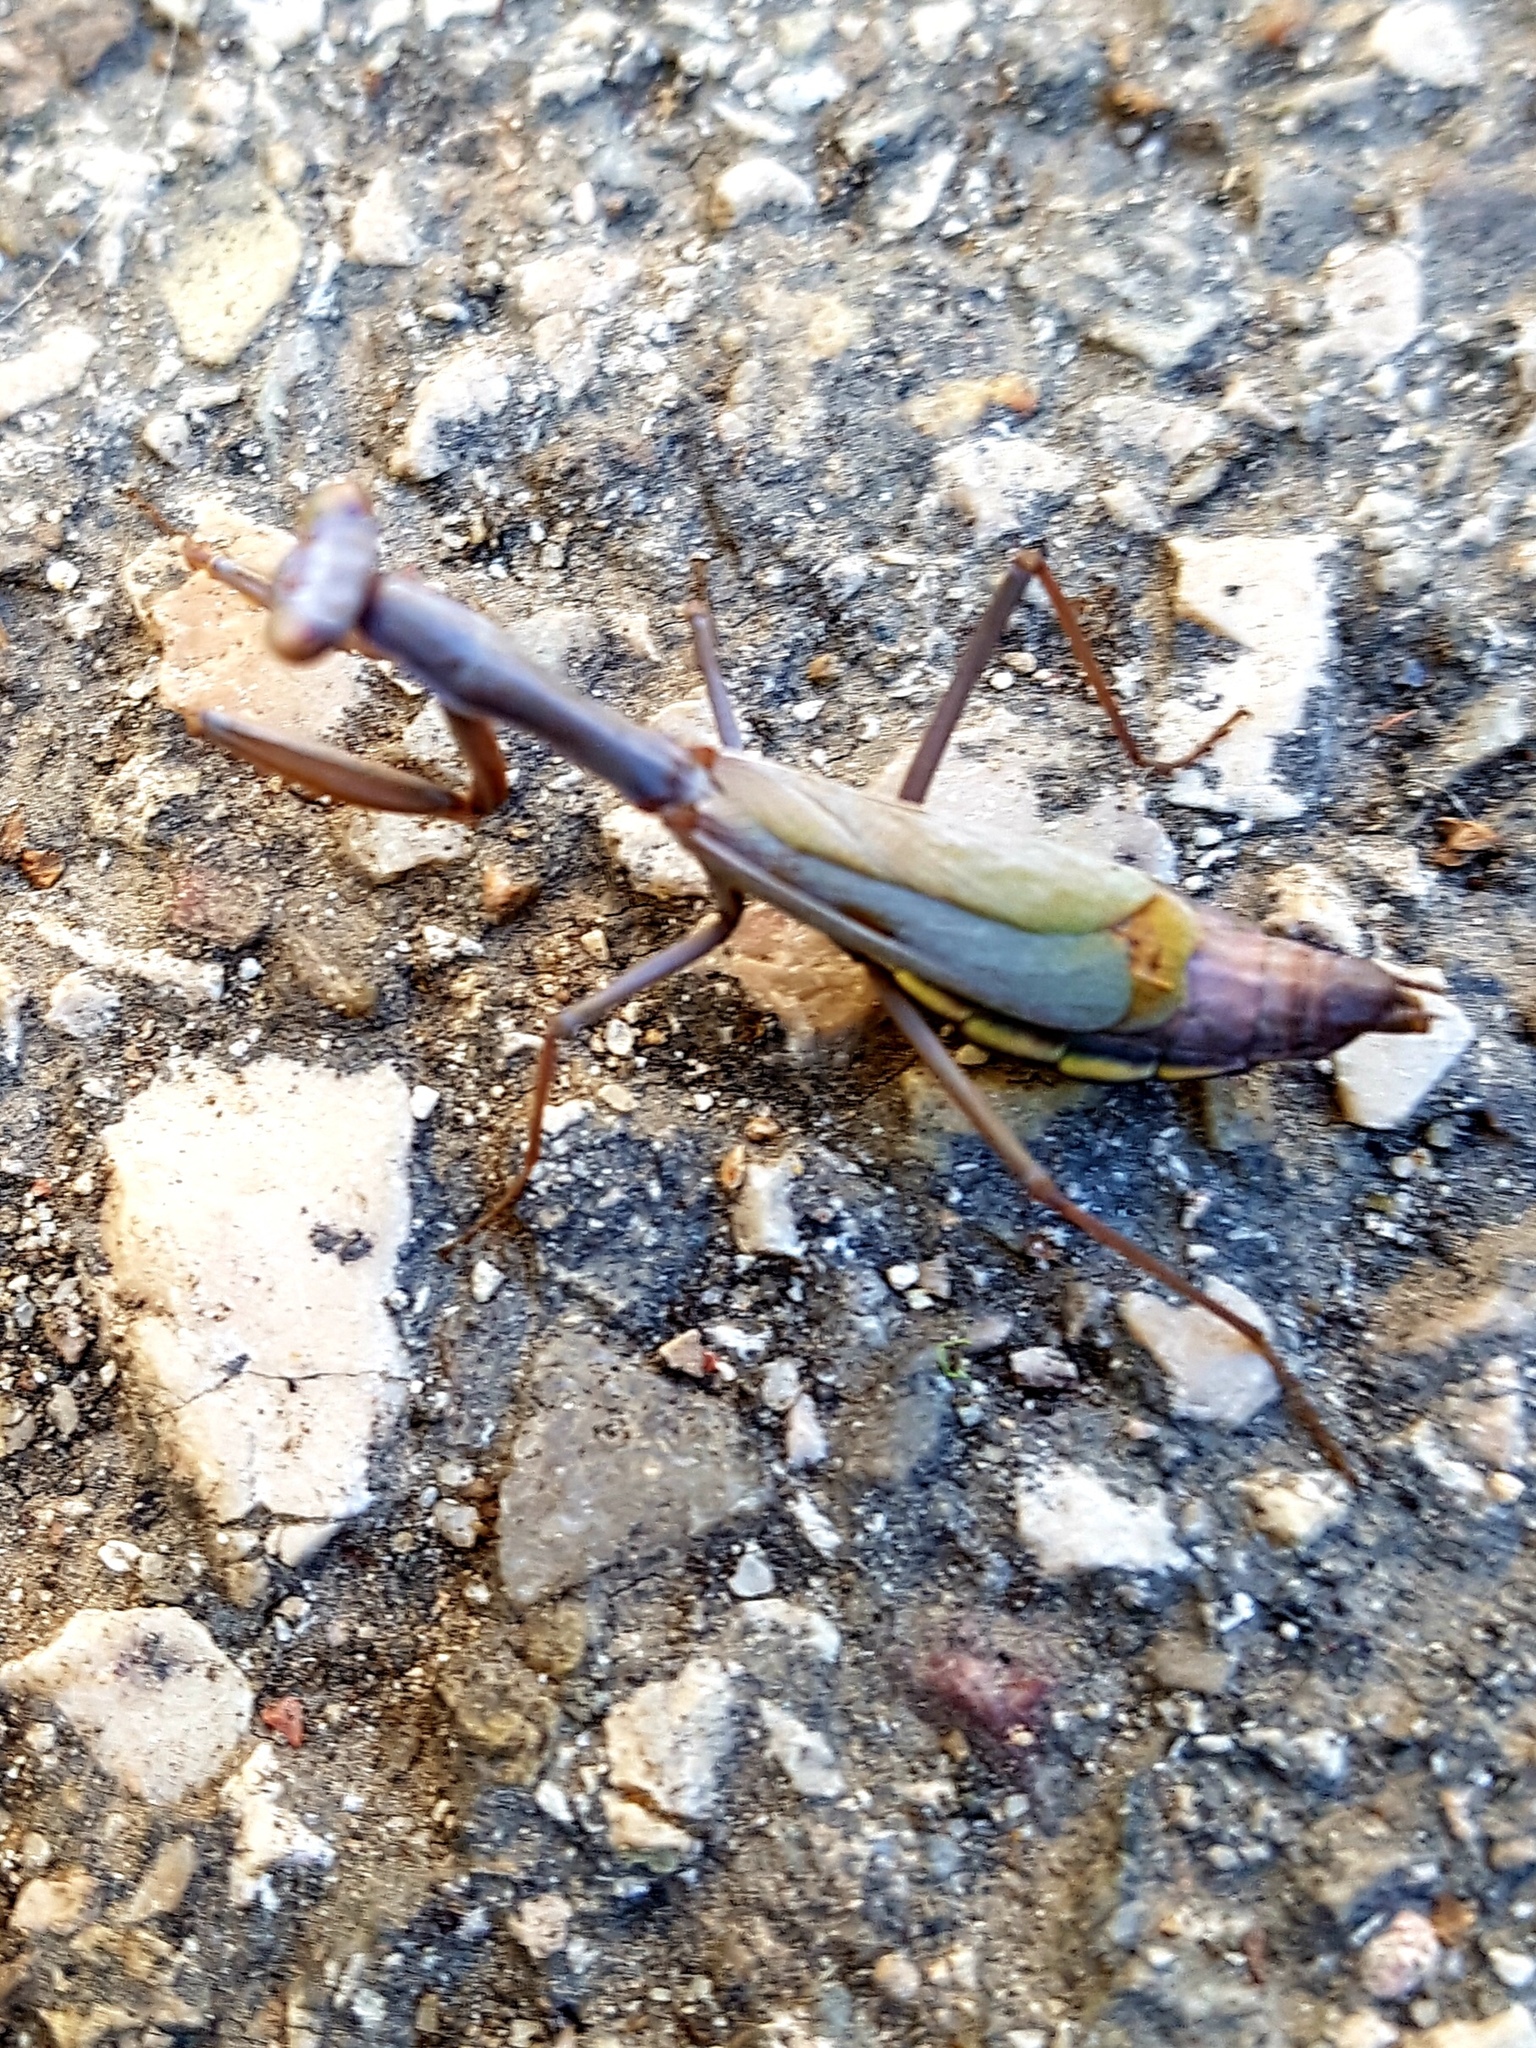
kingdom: Animalia
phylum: Arthropoda
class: Insecta
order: Mantodea
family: Eremiaphilidae
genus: Iris
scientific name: Iris oratoria
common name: Mediterranean mantis
